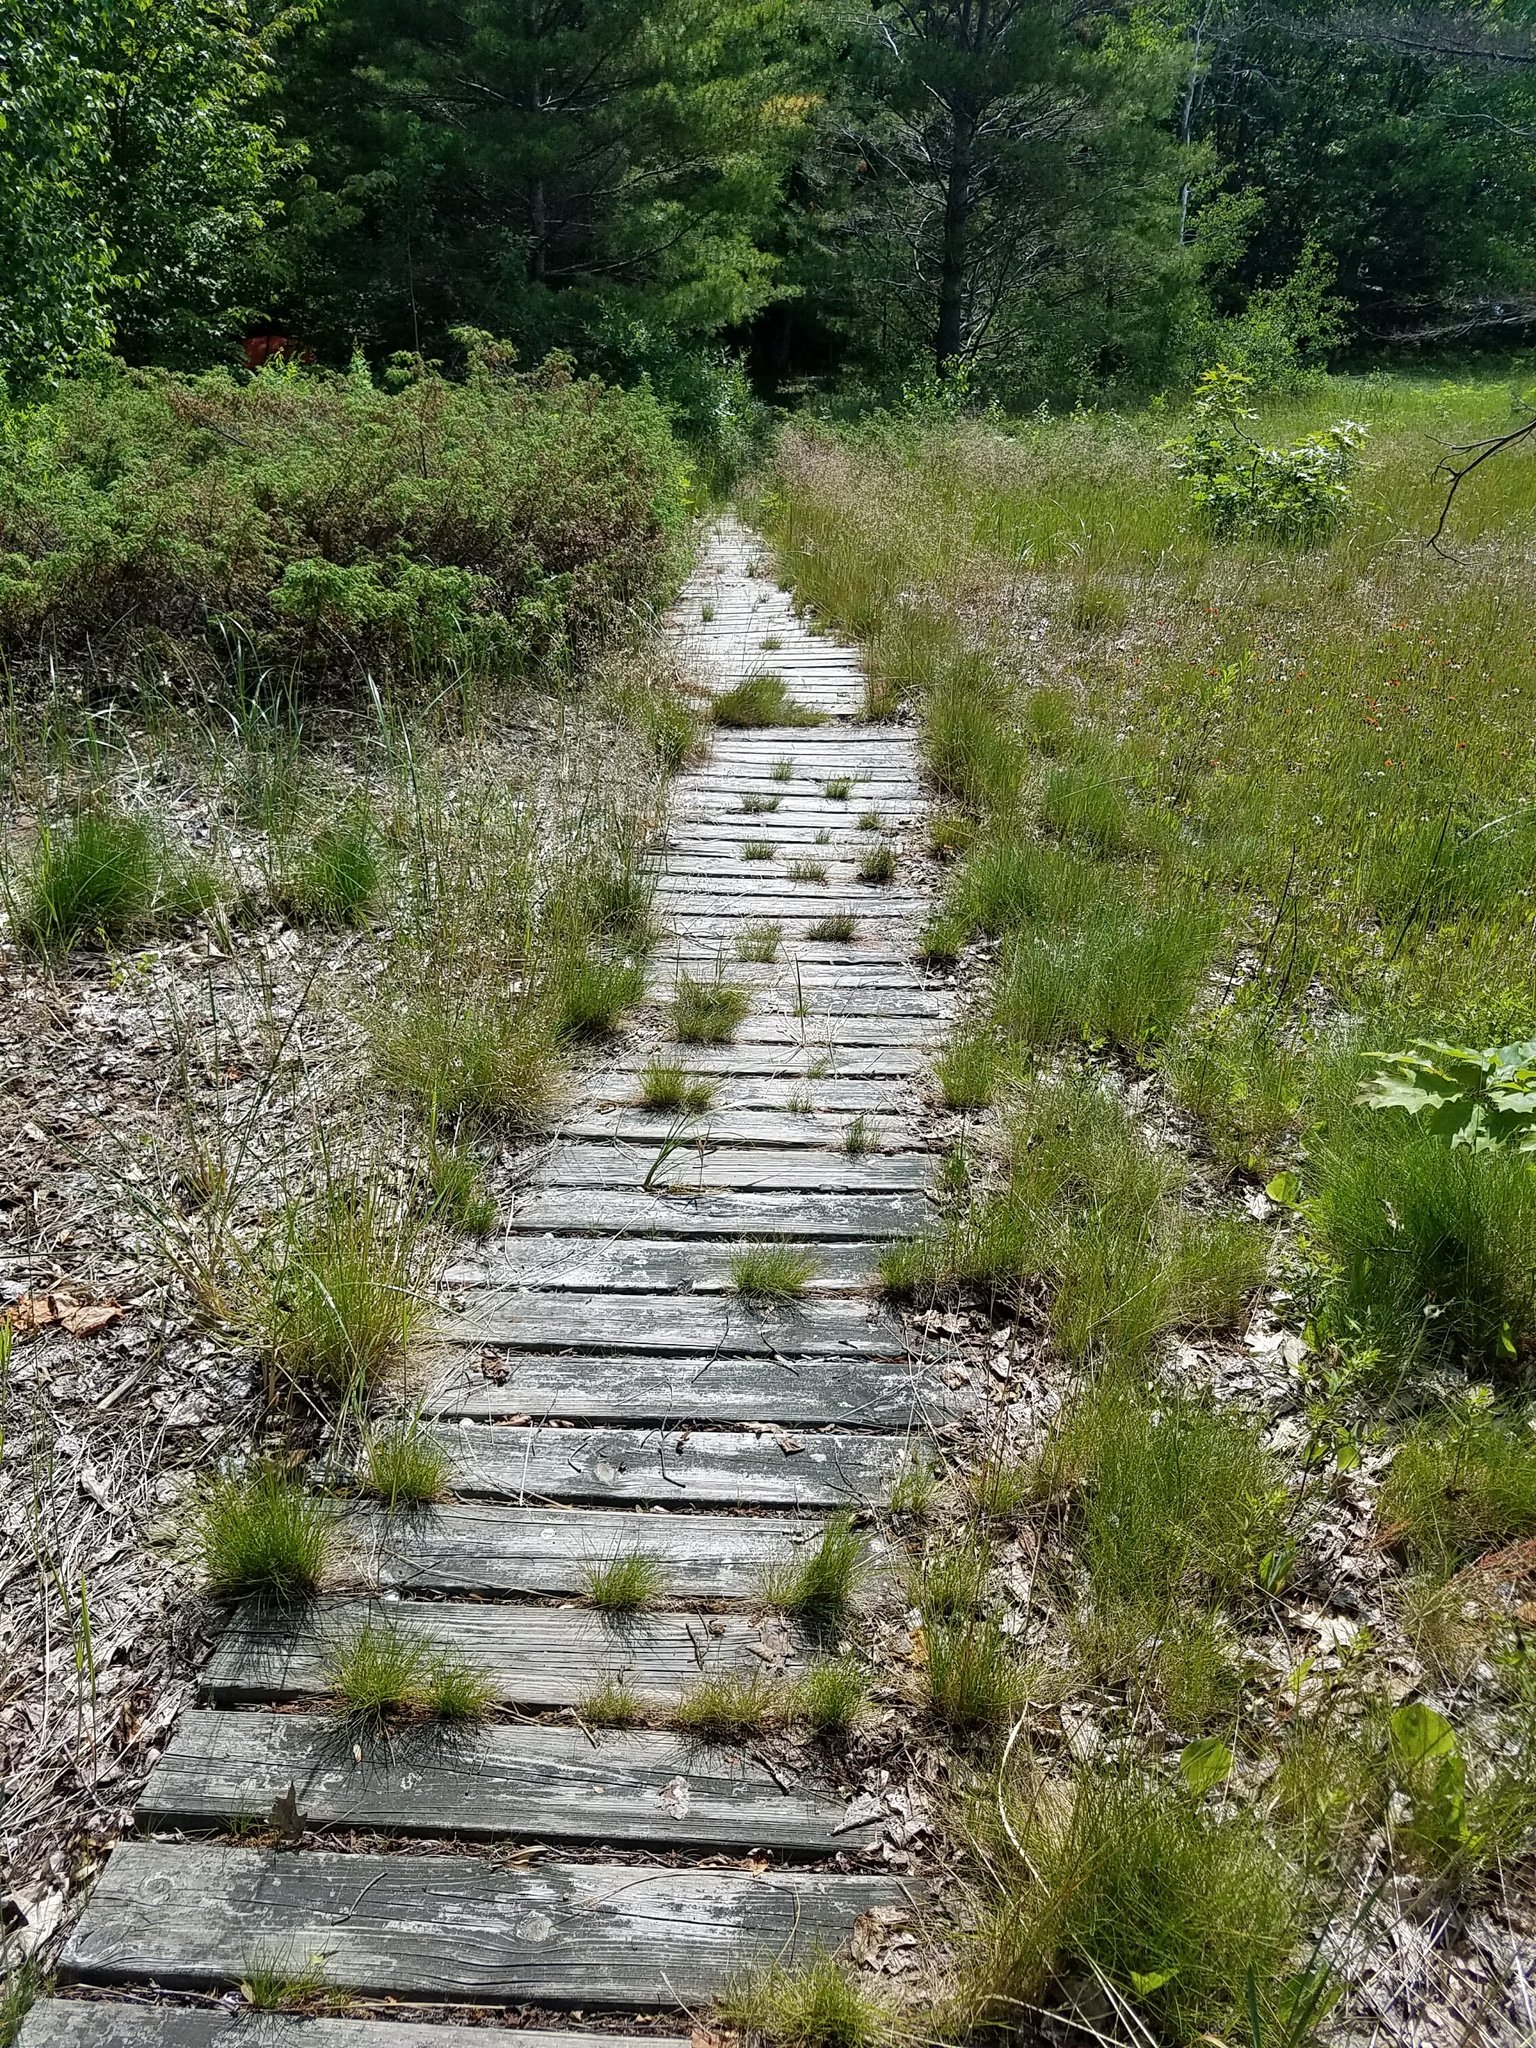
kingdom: Plantae
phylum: Tracheophyta
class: Liliopsida
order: Poales
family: Poaceae
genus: Avenella
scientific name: Avenella flexuosa
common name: Wavy hairgrass
